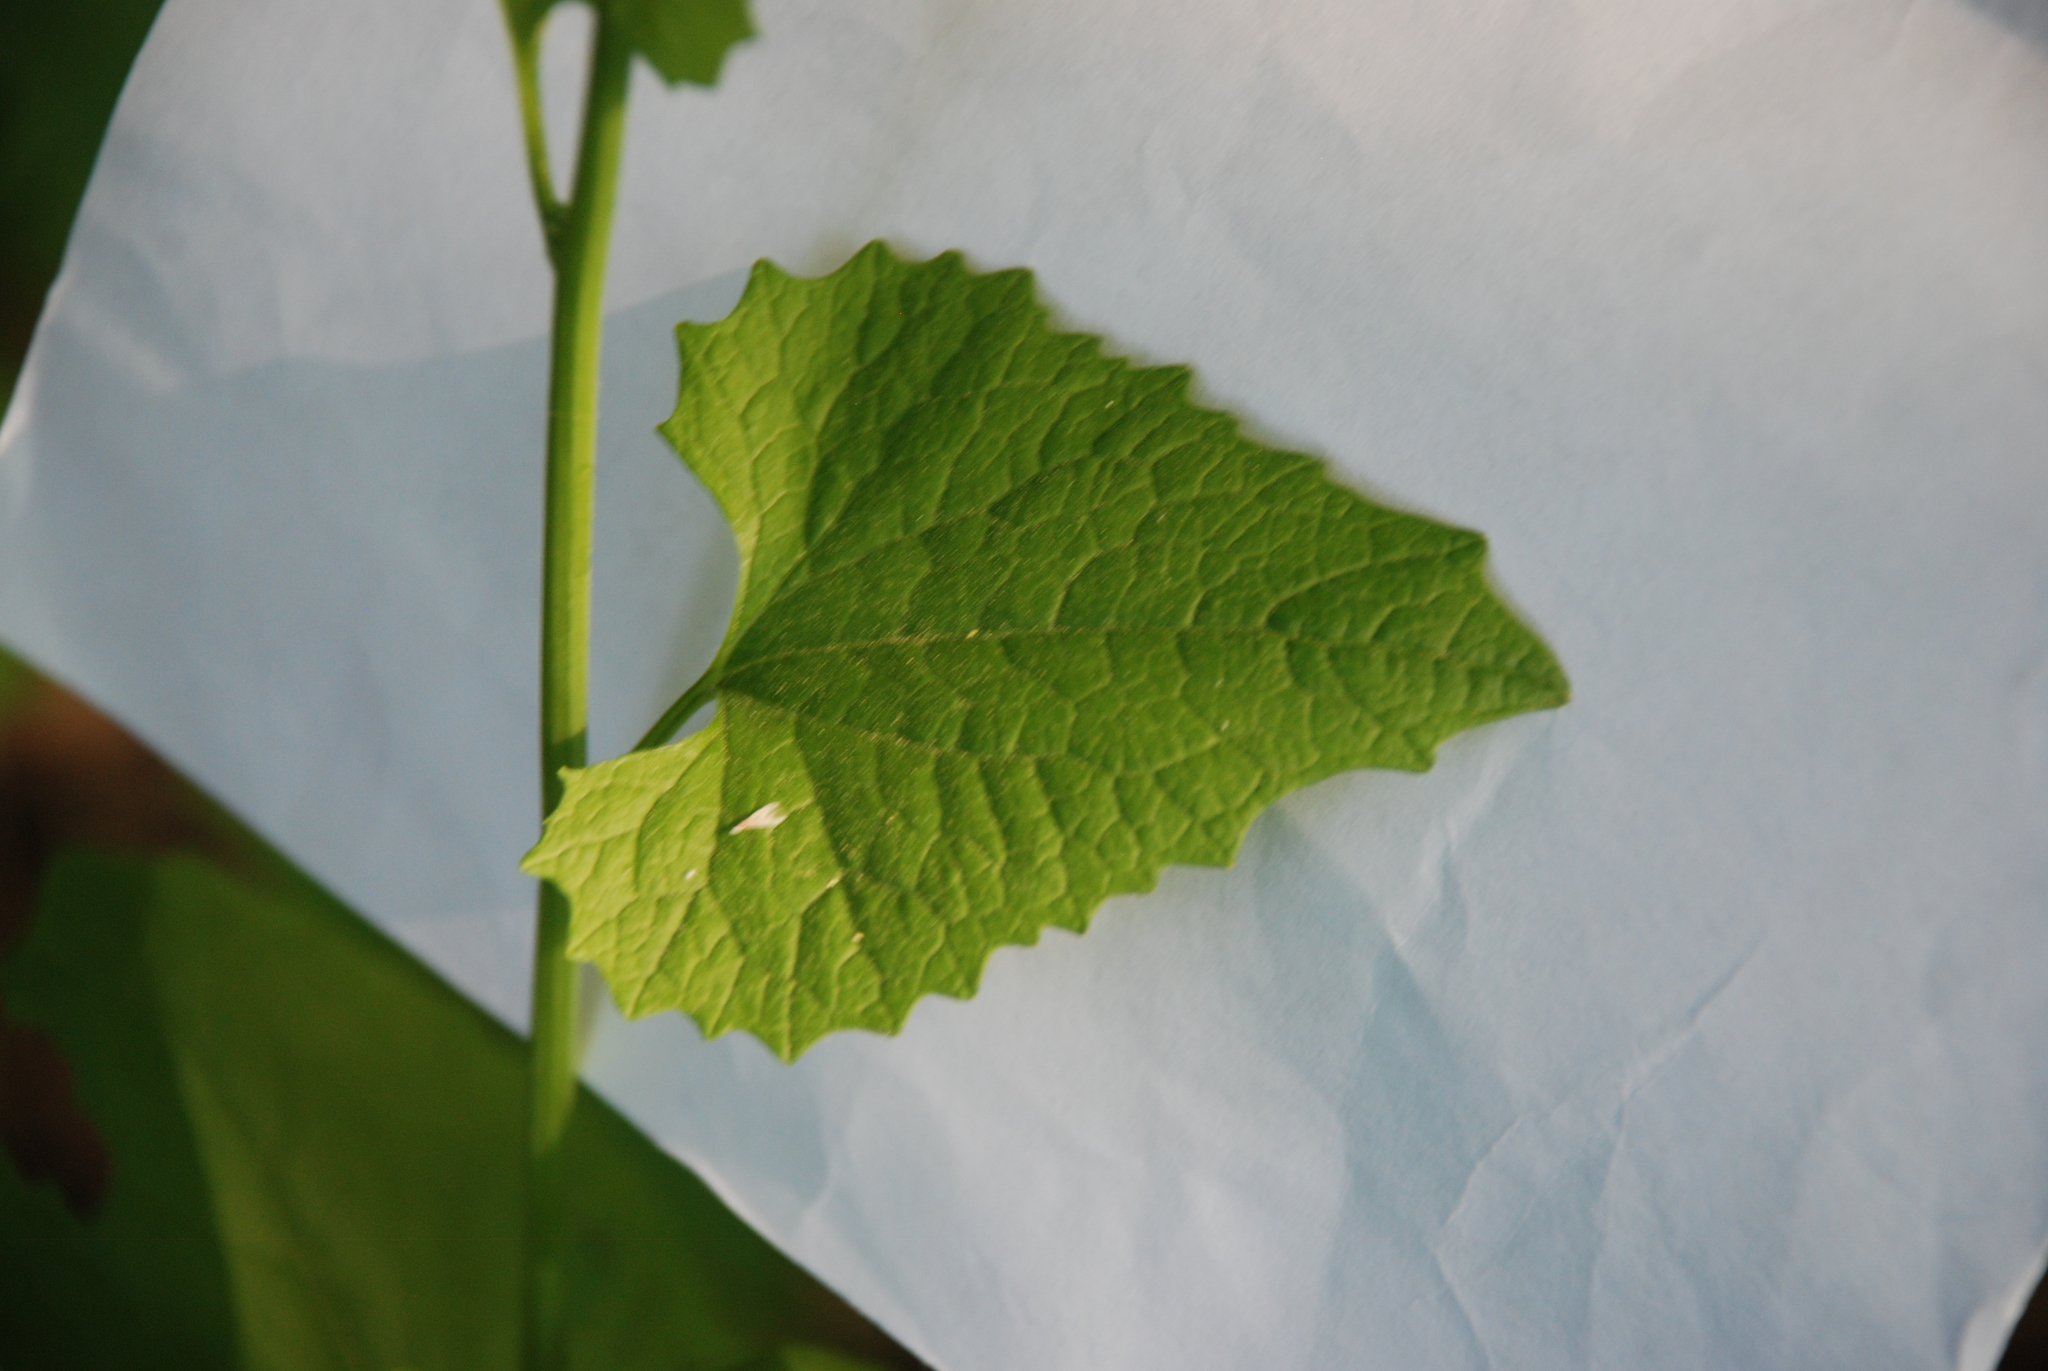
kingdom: Plantae
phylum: Tracheophyta
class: Magnoliopsida
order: Brassicales
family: Brassicaceae
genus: Alliaria
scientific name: Alliaria petiolata
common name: Garlic mustard
